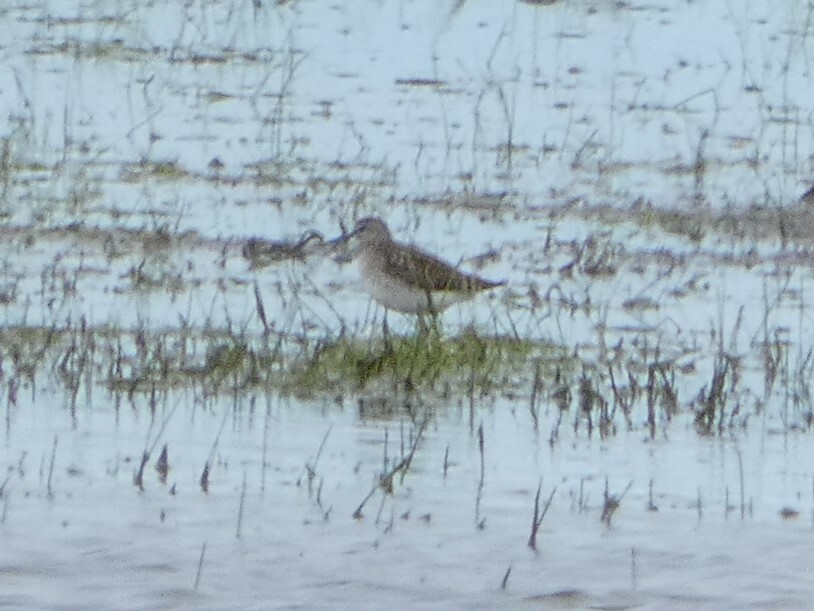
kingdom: Animalia
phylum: Chordata
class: Aves
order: Charadriiformes
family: Scolopacidae
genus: Tringa
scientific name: Tringa glareola
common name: Wood sandpiper
